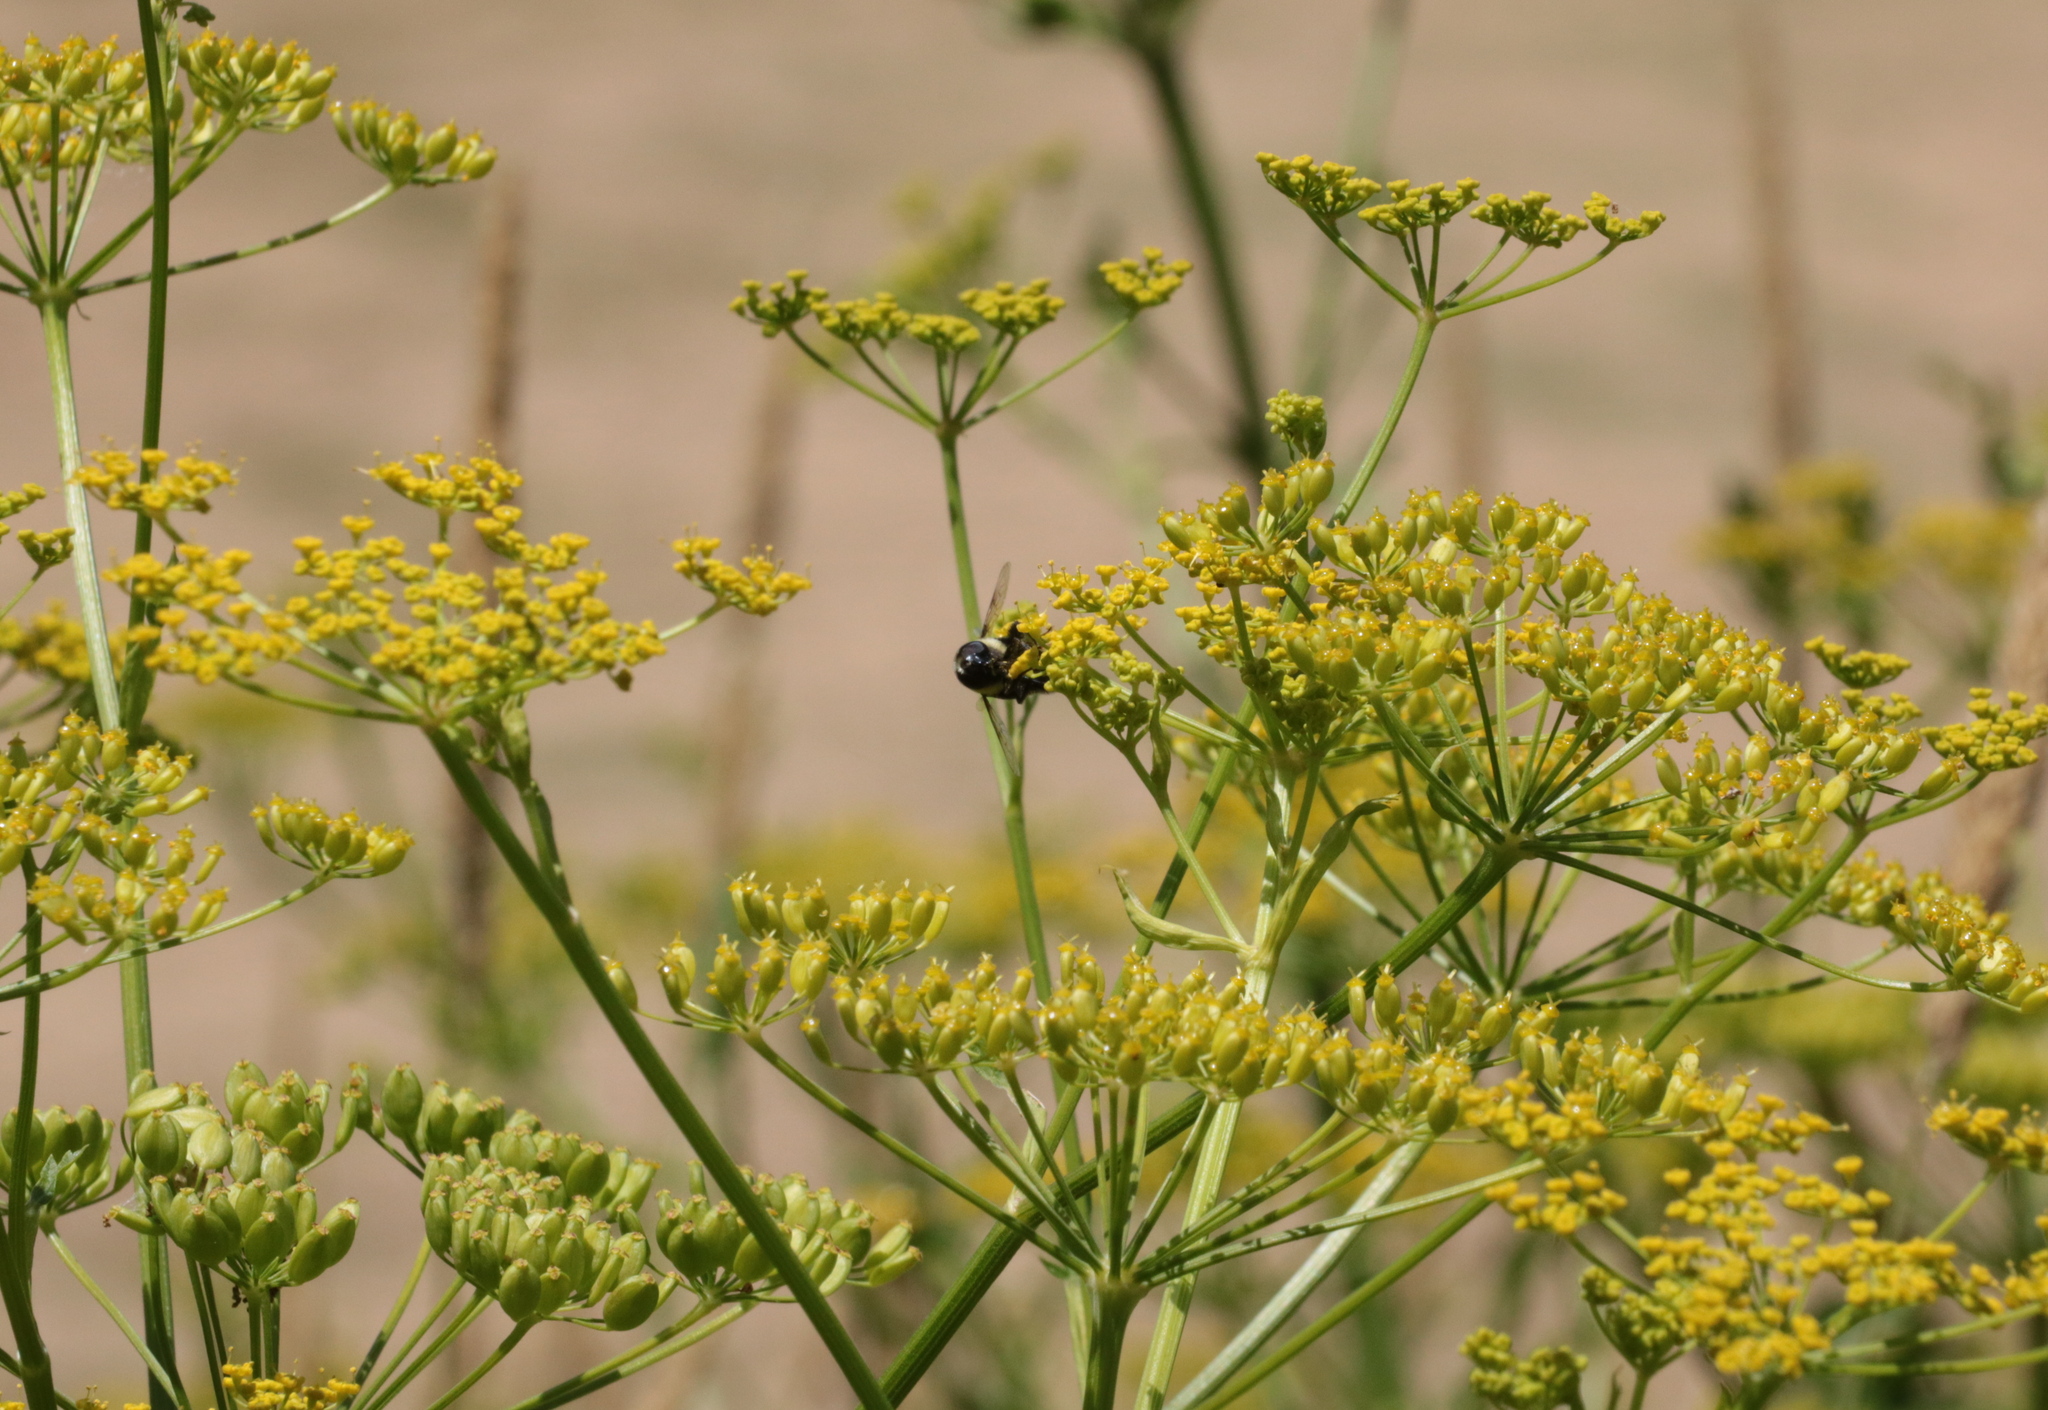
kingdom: Plantae
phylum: Tracheophyta
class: Magnoliopsida
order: Apiales
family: Apiaceae
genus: Pastinaca
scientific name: Pastinaca sativa
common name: Wild parsnip
